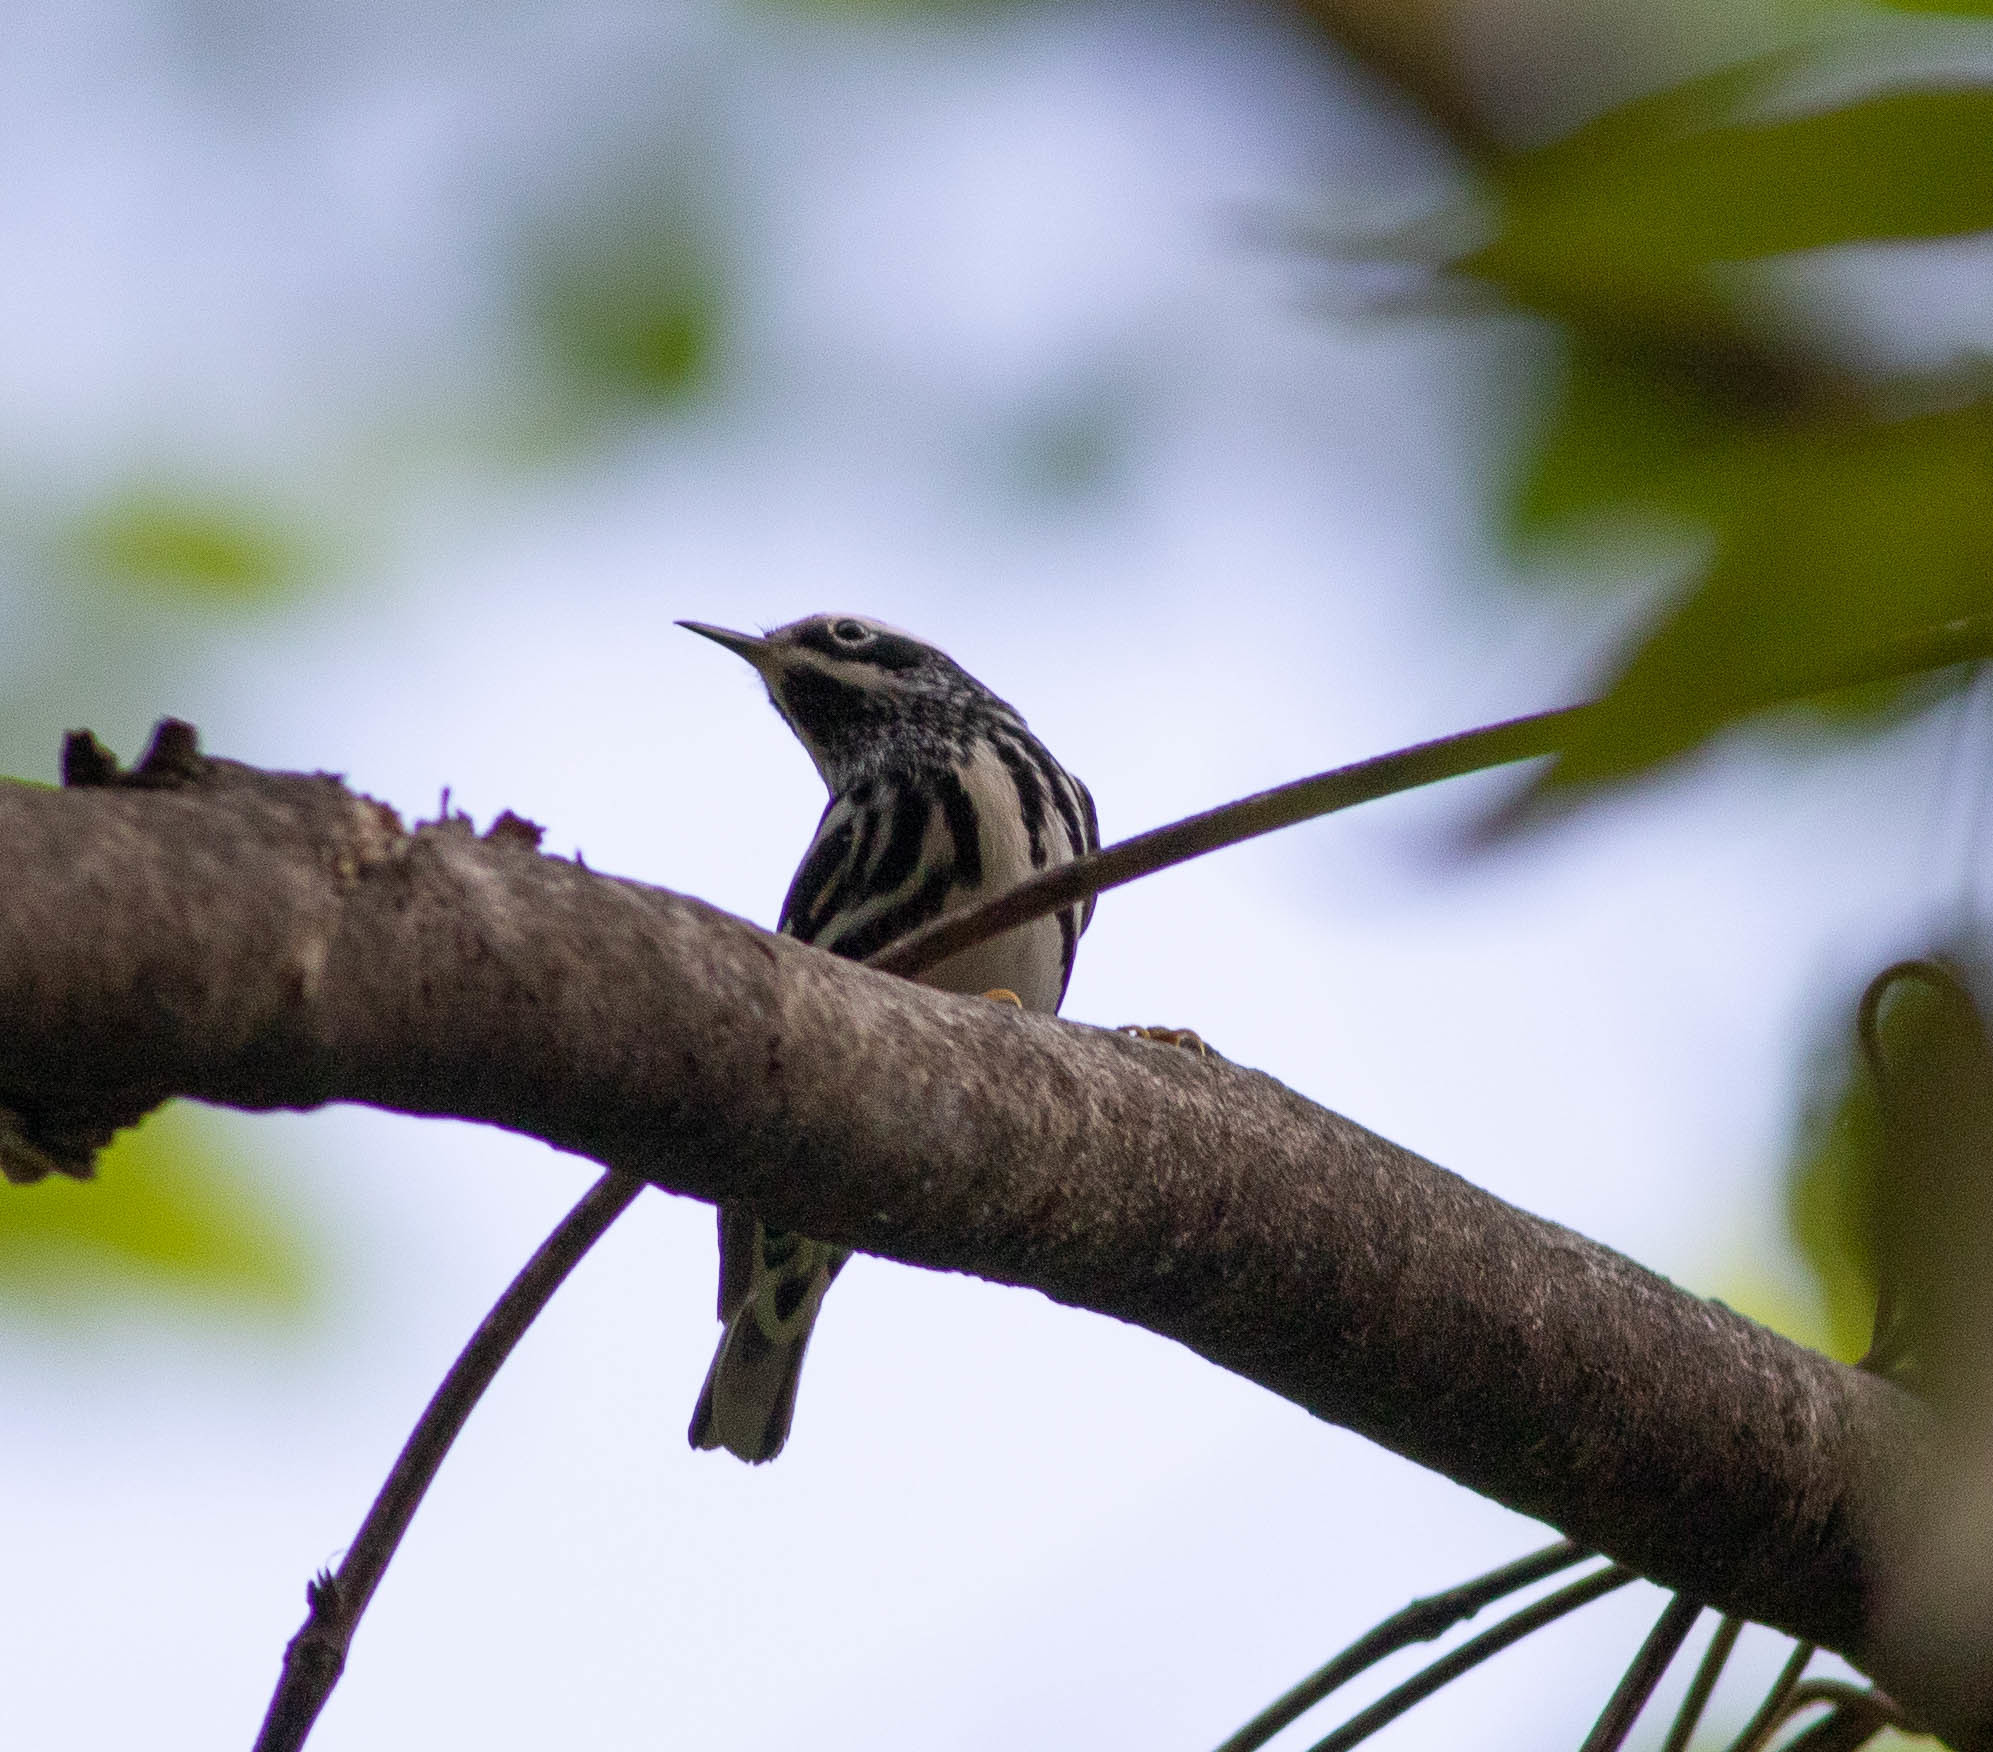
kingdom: Animalia
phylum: Chordata
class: Aves
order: Passeriformes
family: Parulidae
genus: Mniotilta
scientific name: Mniotilta varia
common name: Black-and-white warbler
